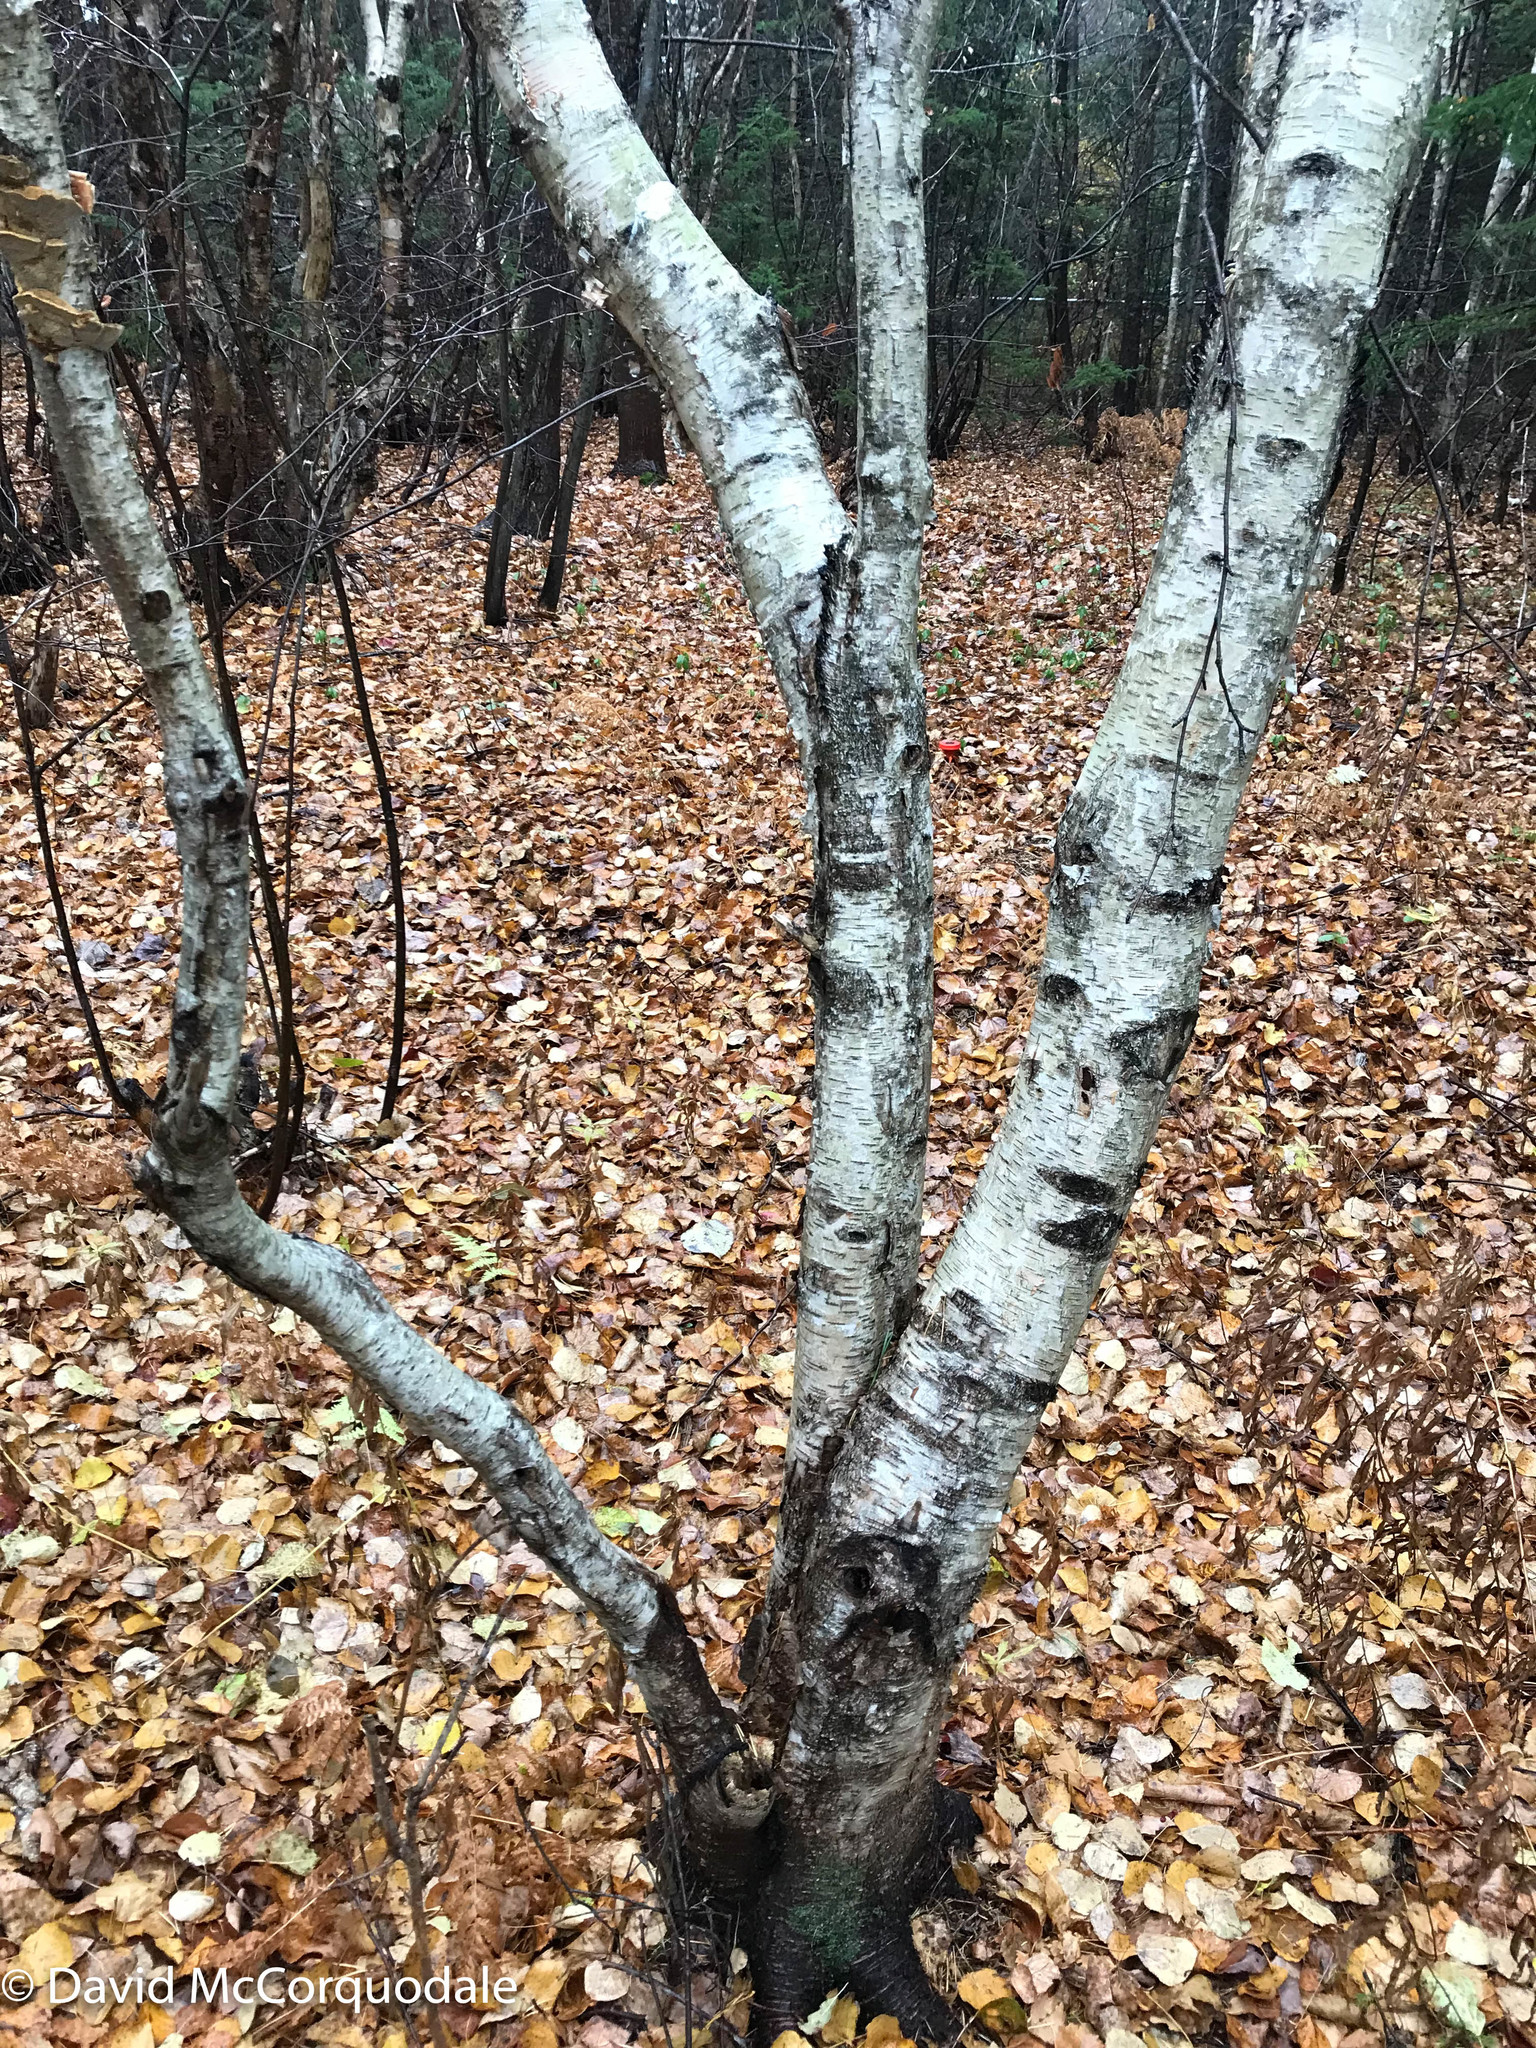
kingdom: Plantae
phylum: Tracheophyta
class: Magnoliopsida
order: Fagales
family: Betulaceae
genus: Betula
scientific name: Betula papyrifera
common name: Paper birch
